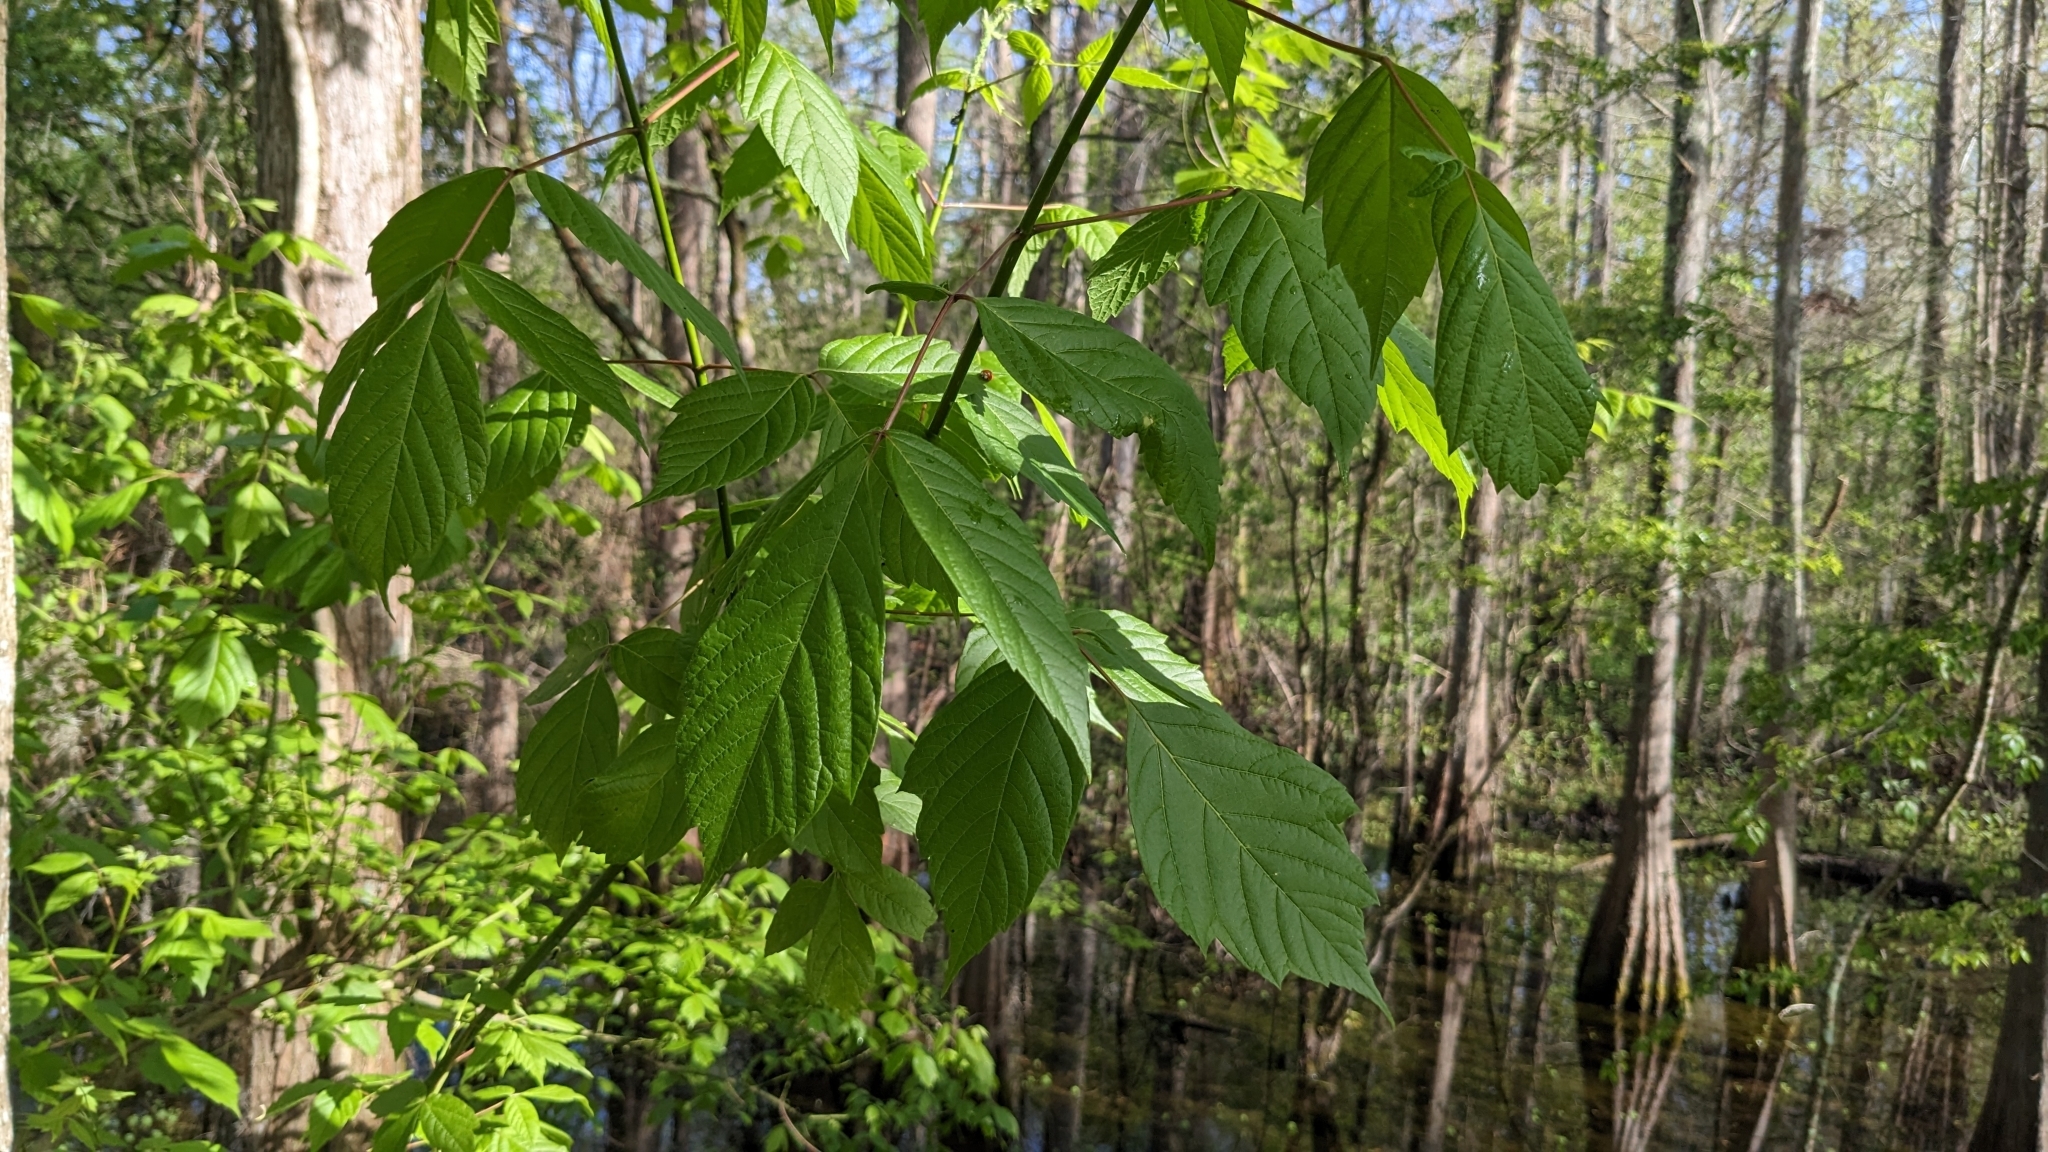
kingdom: Plantae
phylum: Tracheophyta
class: Magnoliopsida
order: Sapindales
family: Sapindaceae
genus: Acer
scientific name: Acer negundo
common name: Ashleaf maple
